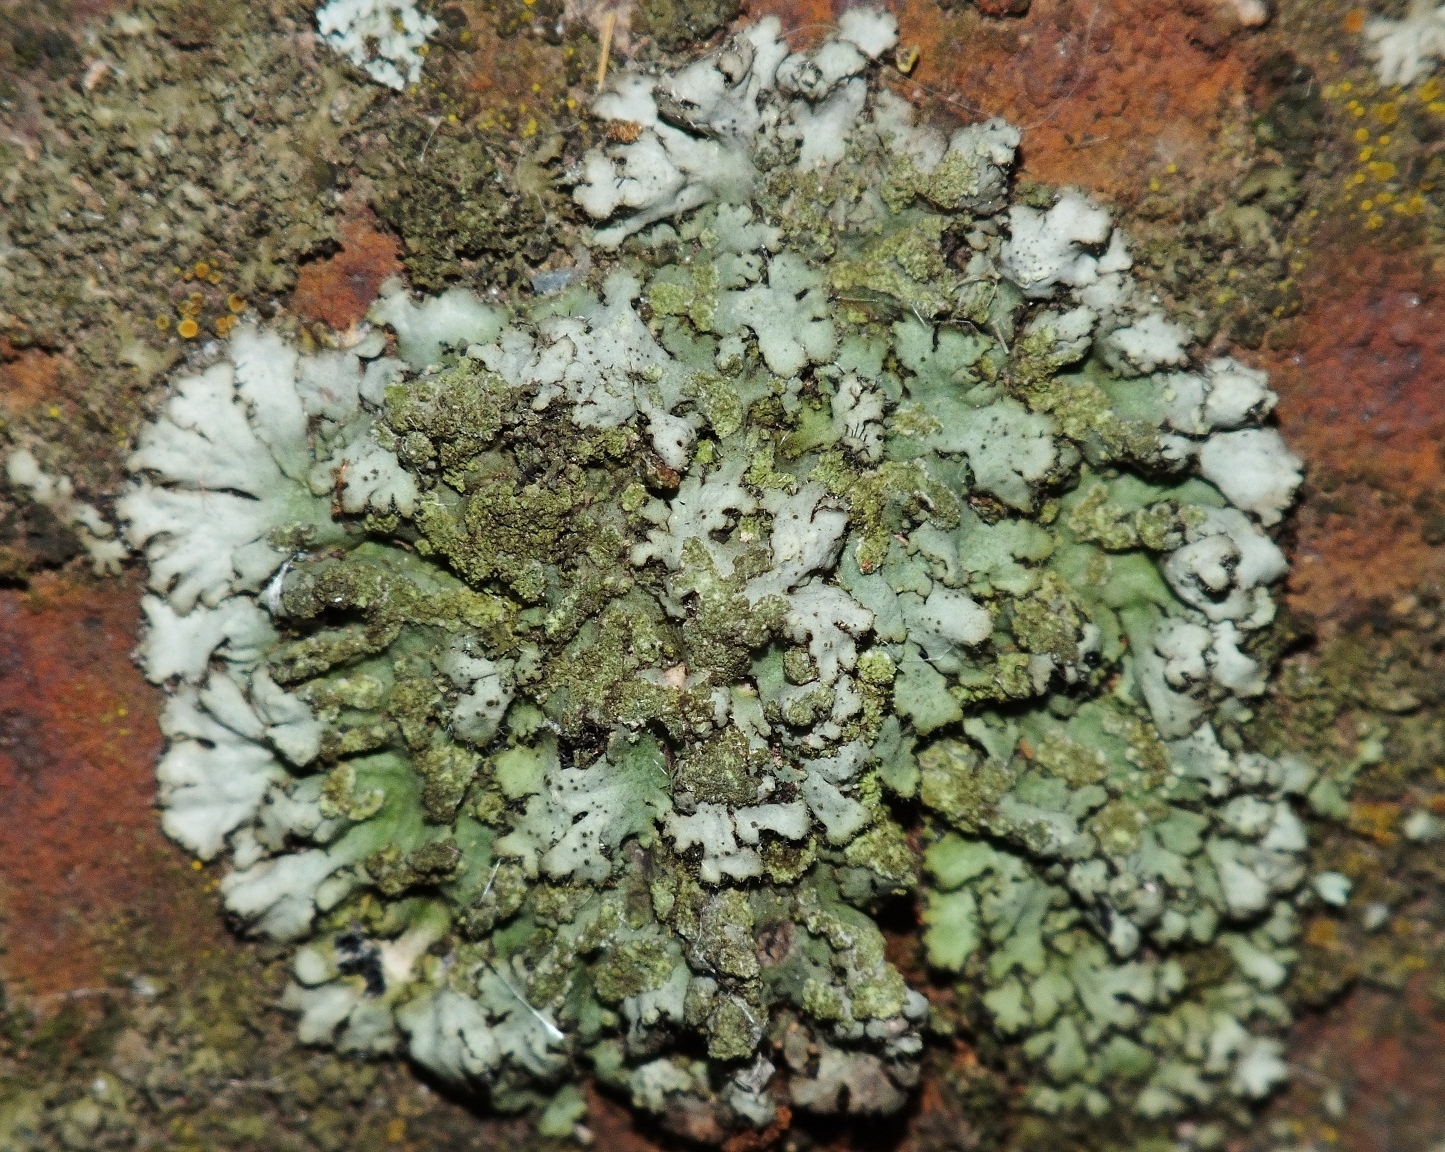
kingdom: Fungi
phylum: Ascomycota
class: Lecanoromycetes
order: Caliciales
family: Physciaceae
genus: Phaeophyscia
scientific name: Phaeophyscia orbicularis
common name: Mealy shadow lichen
